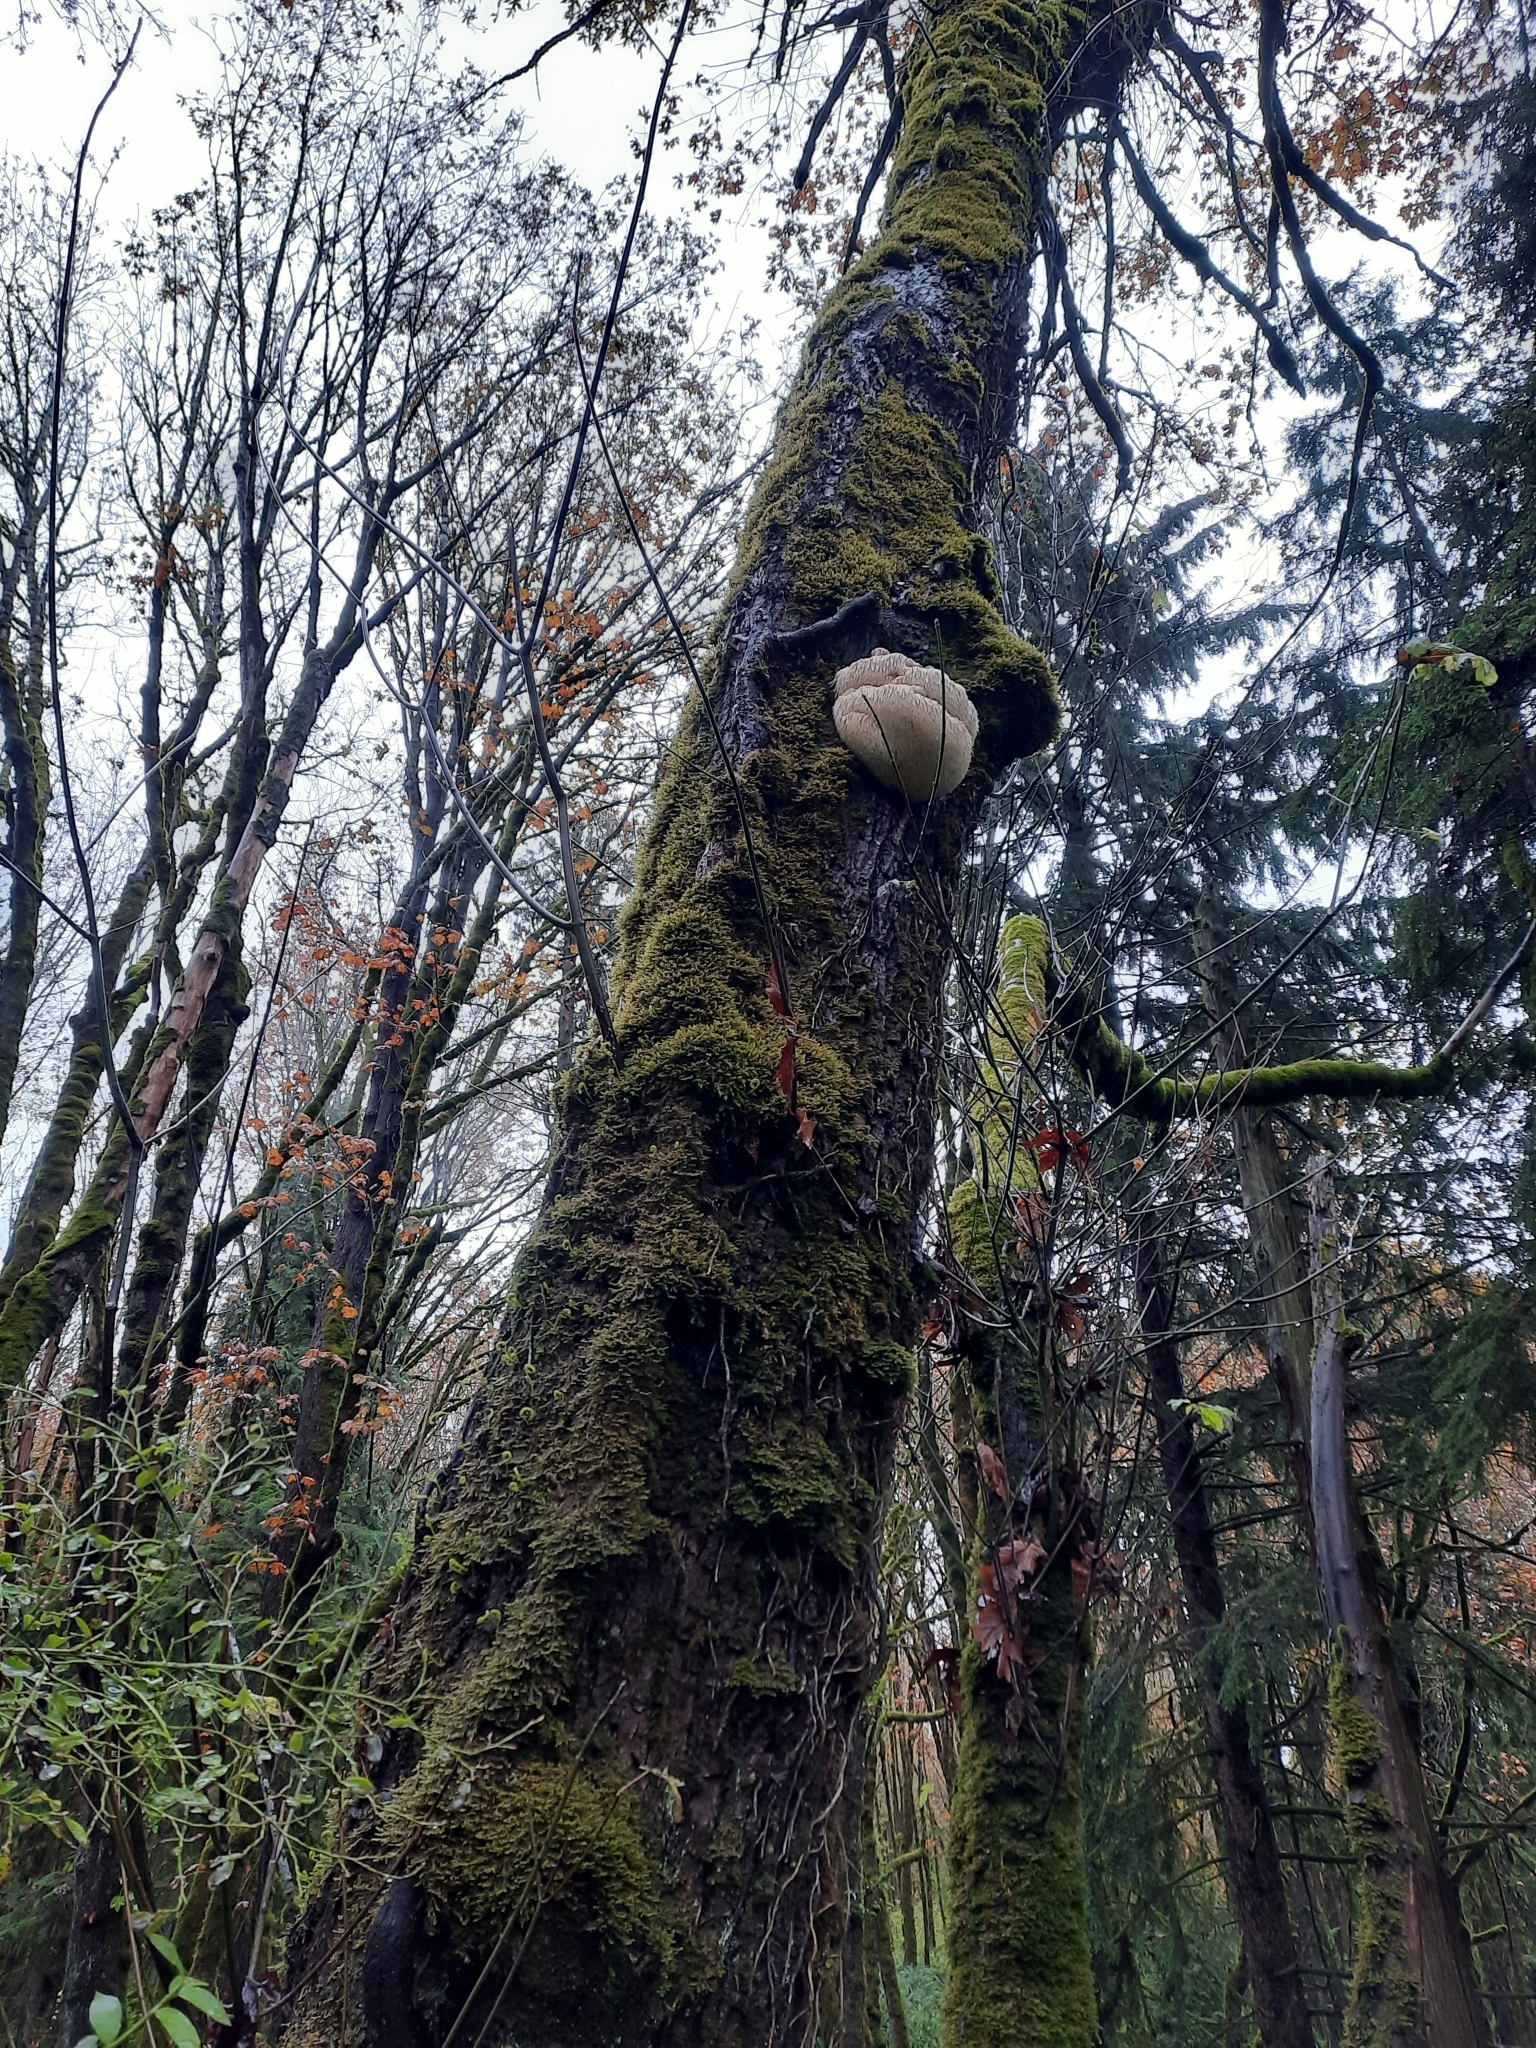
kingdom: Fungi
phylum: Basidiomycota
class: Agaricomycetes
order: Russulales
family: Hericiaceae
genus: Hericium
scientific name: Hericium erinaceus
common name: Bearded tooth
